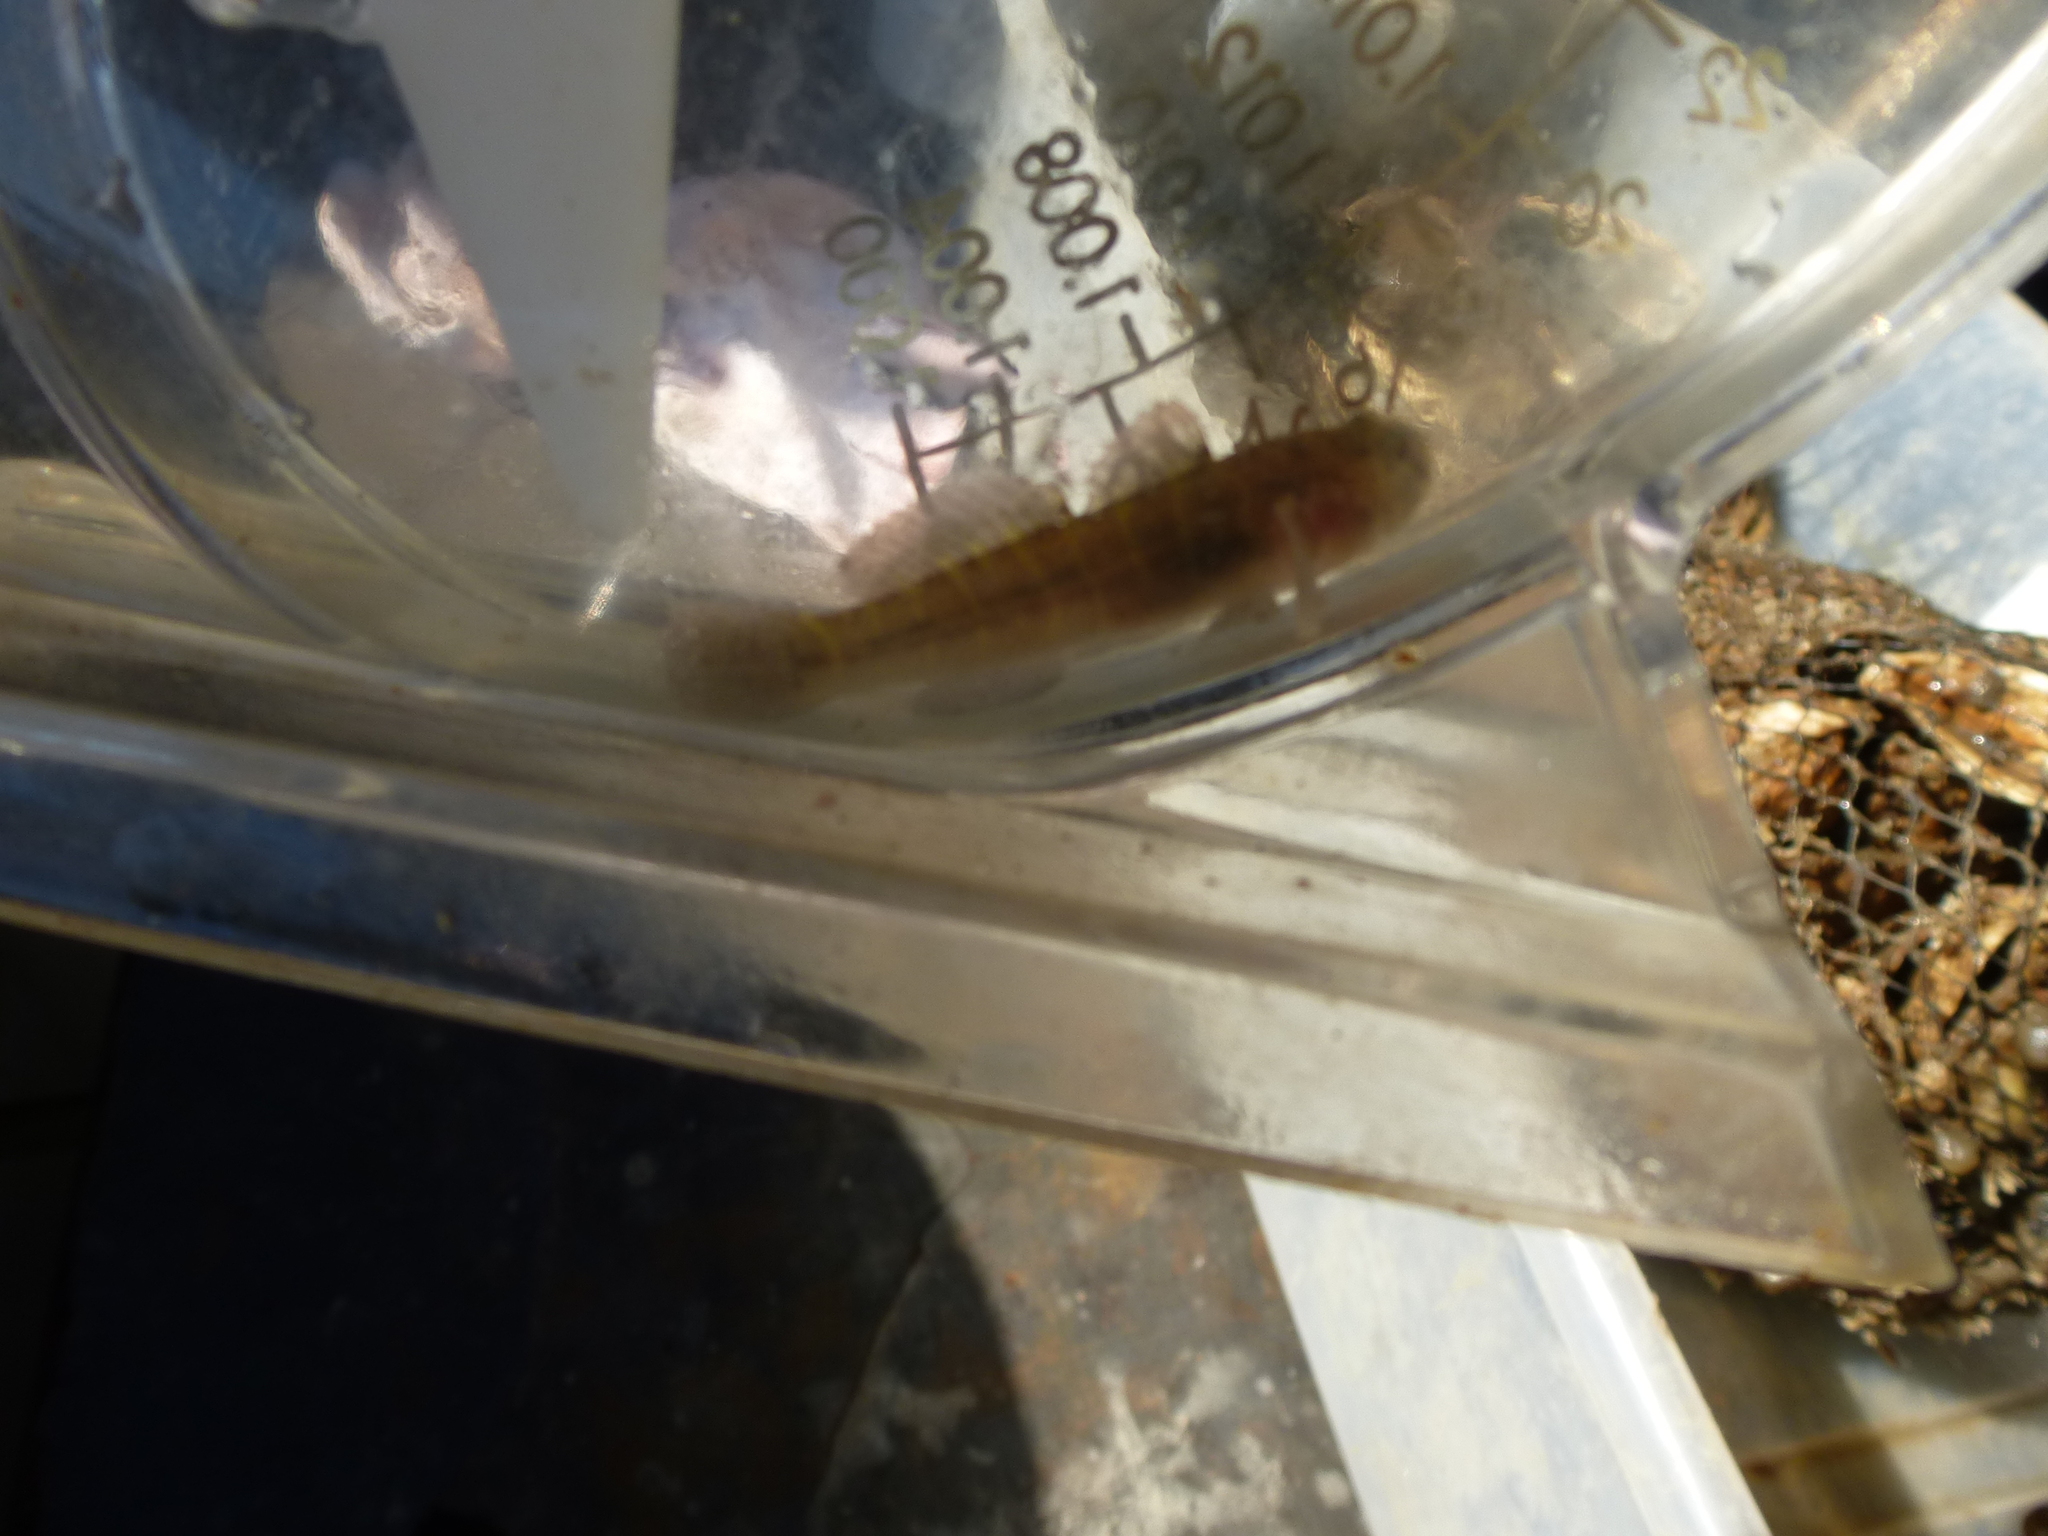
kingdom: Animalia
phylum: Chordata
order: Perciformes
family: Gobiidae
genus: Gobiosoma
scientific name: Gobiosoma bosc
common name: Naked goby
